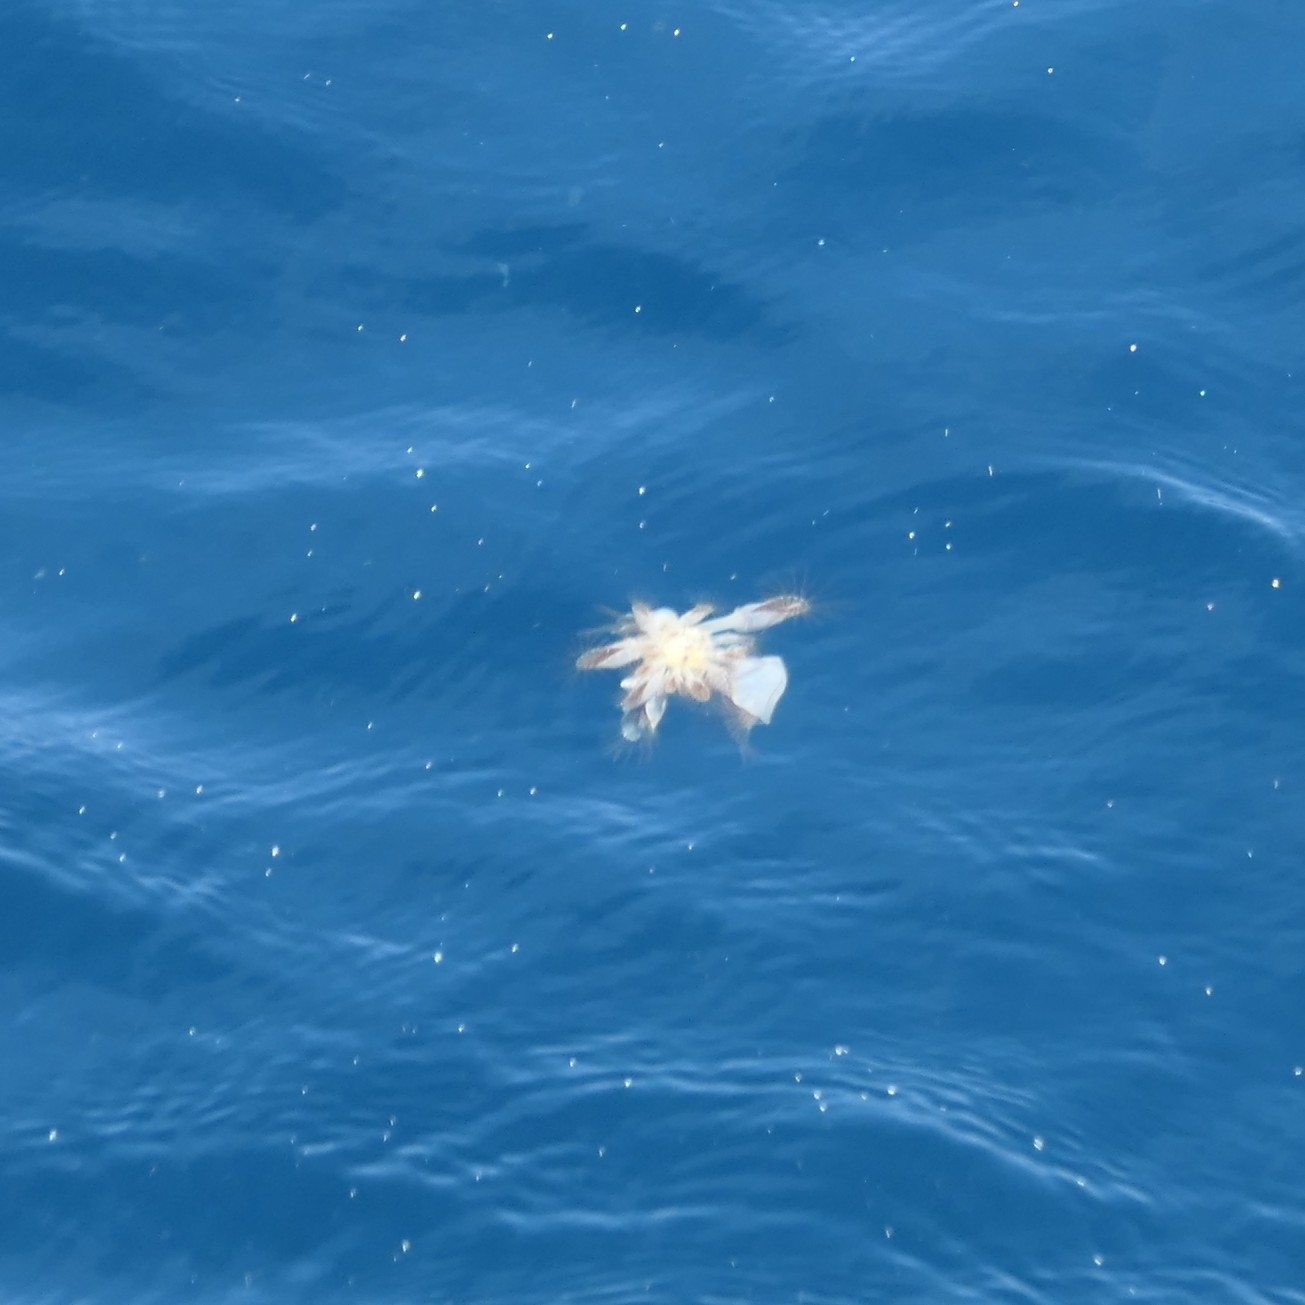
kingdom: Animalia
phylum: Arthropoda
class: Maxillopoda
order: Pedunculata
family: Lepadidae
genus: Lepas
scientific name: Lepas anatifera
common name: Common goose barnacle
